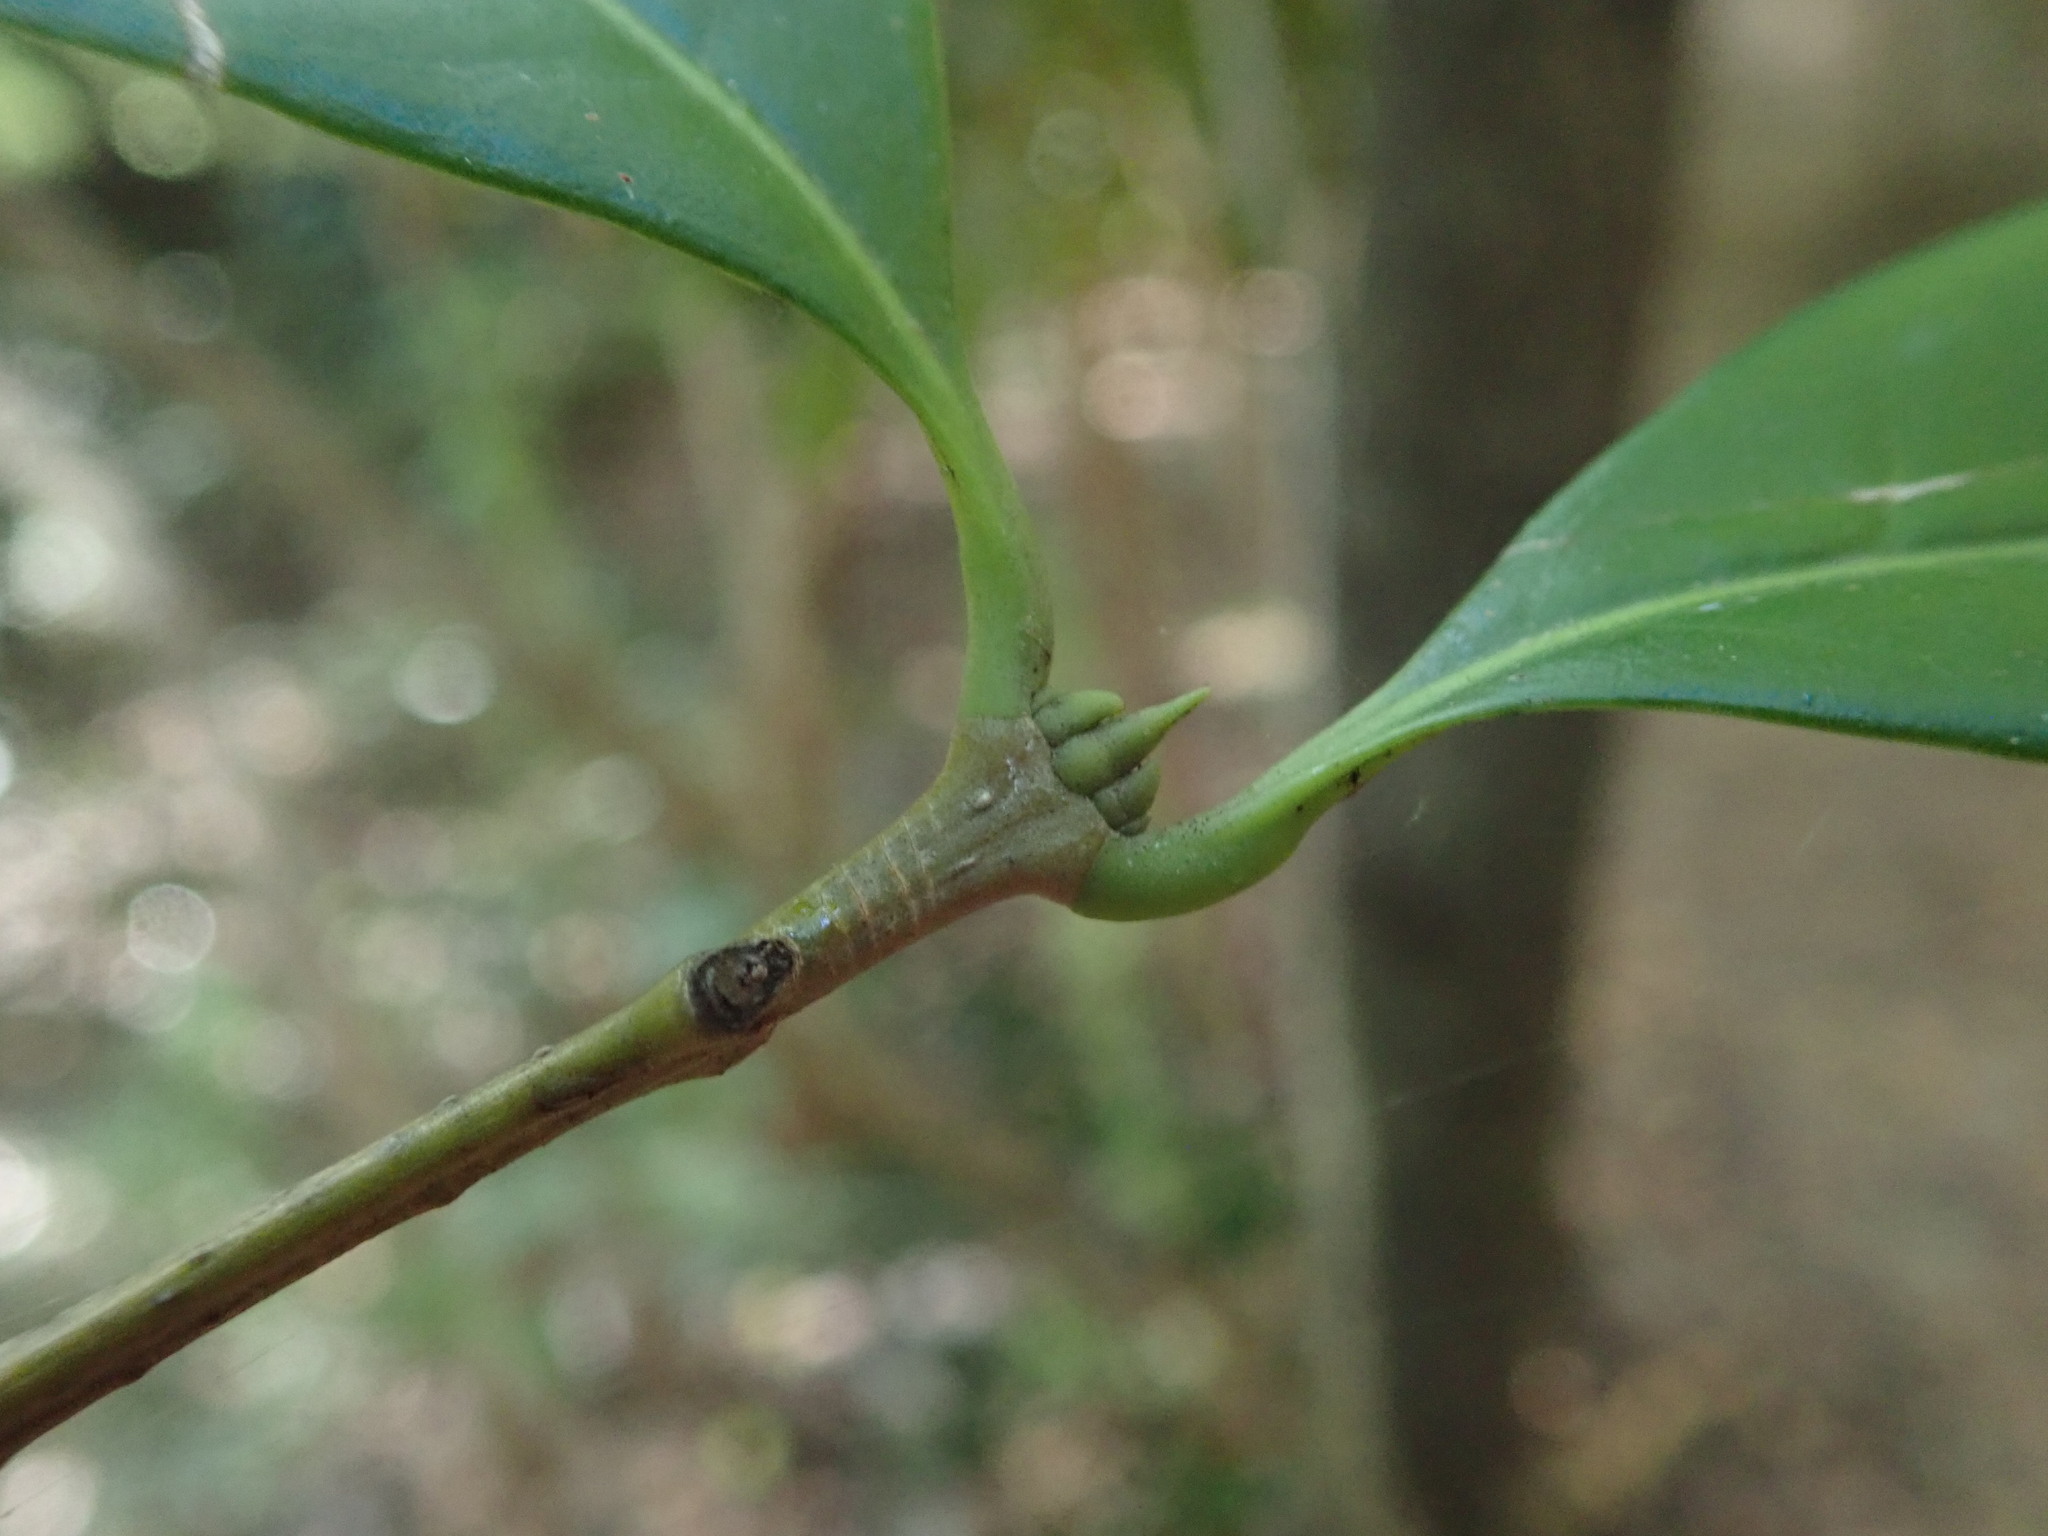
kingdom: Plantae
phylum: Tracheophyta
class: Magnoliopsida
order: Lamiales
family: Oleaceae
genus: Picconia
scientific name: Picconia excelsa
